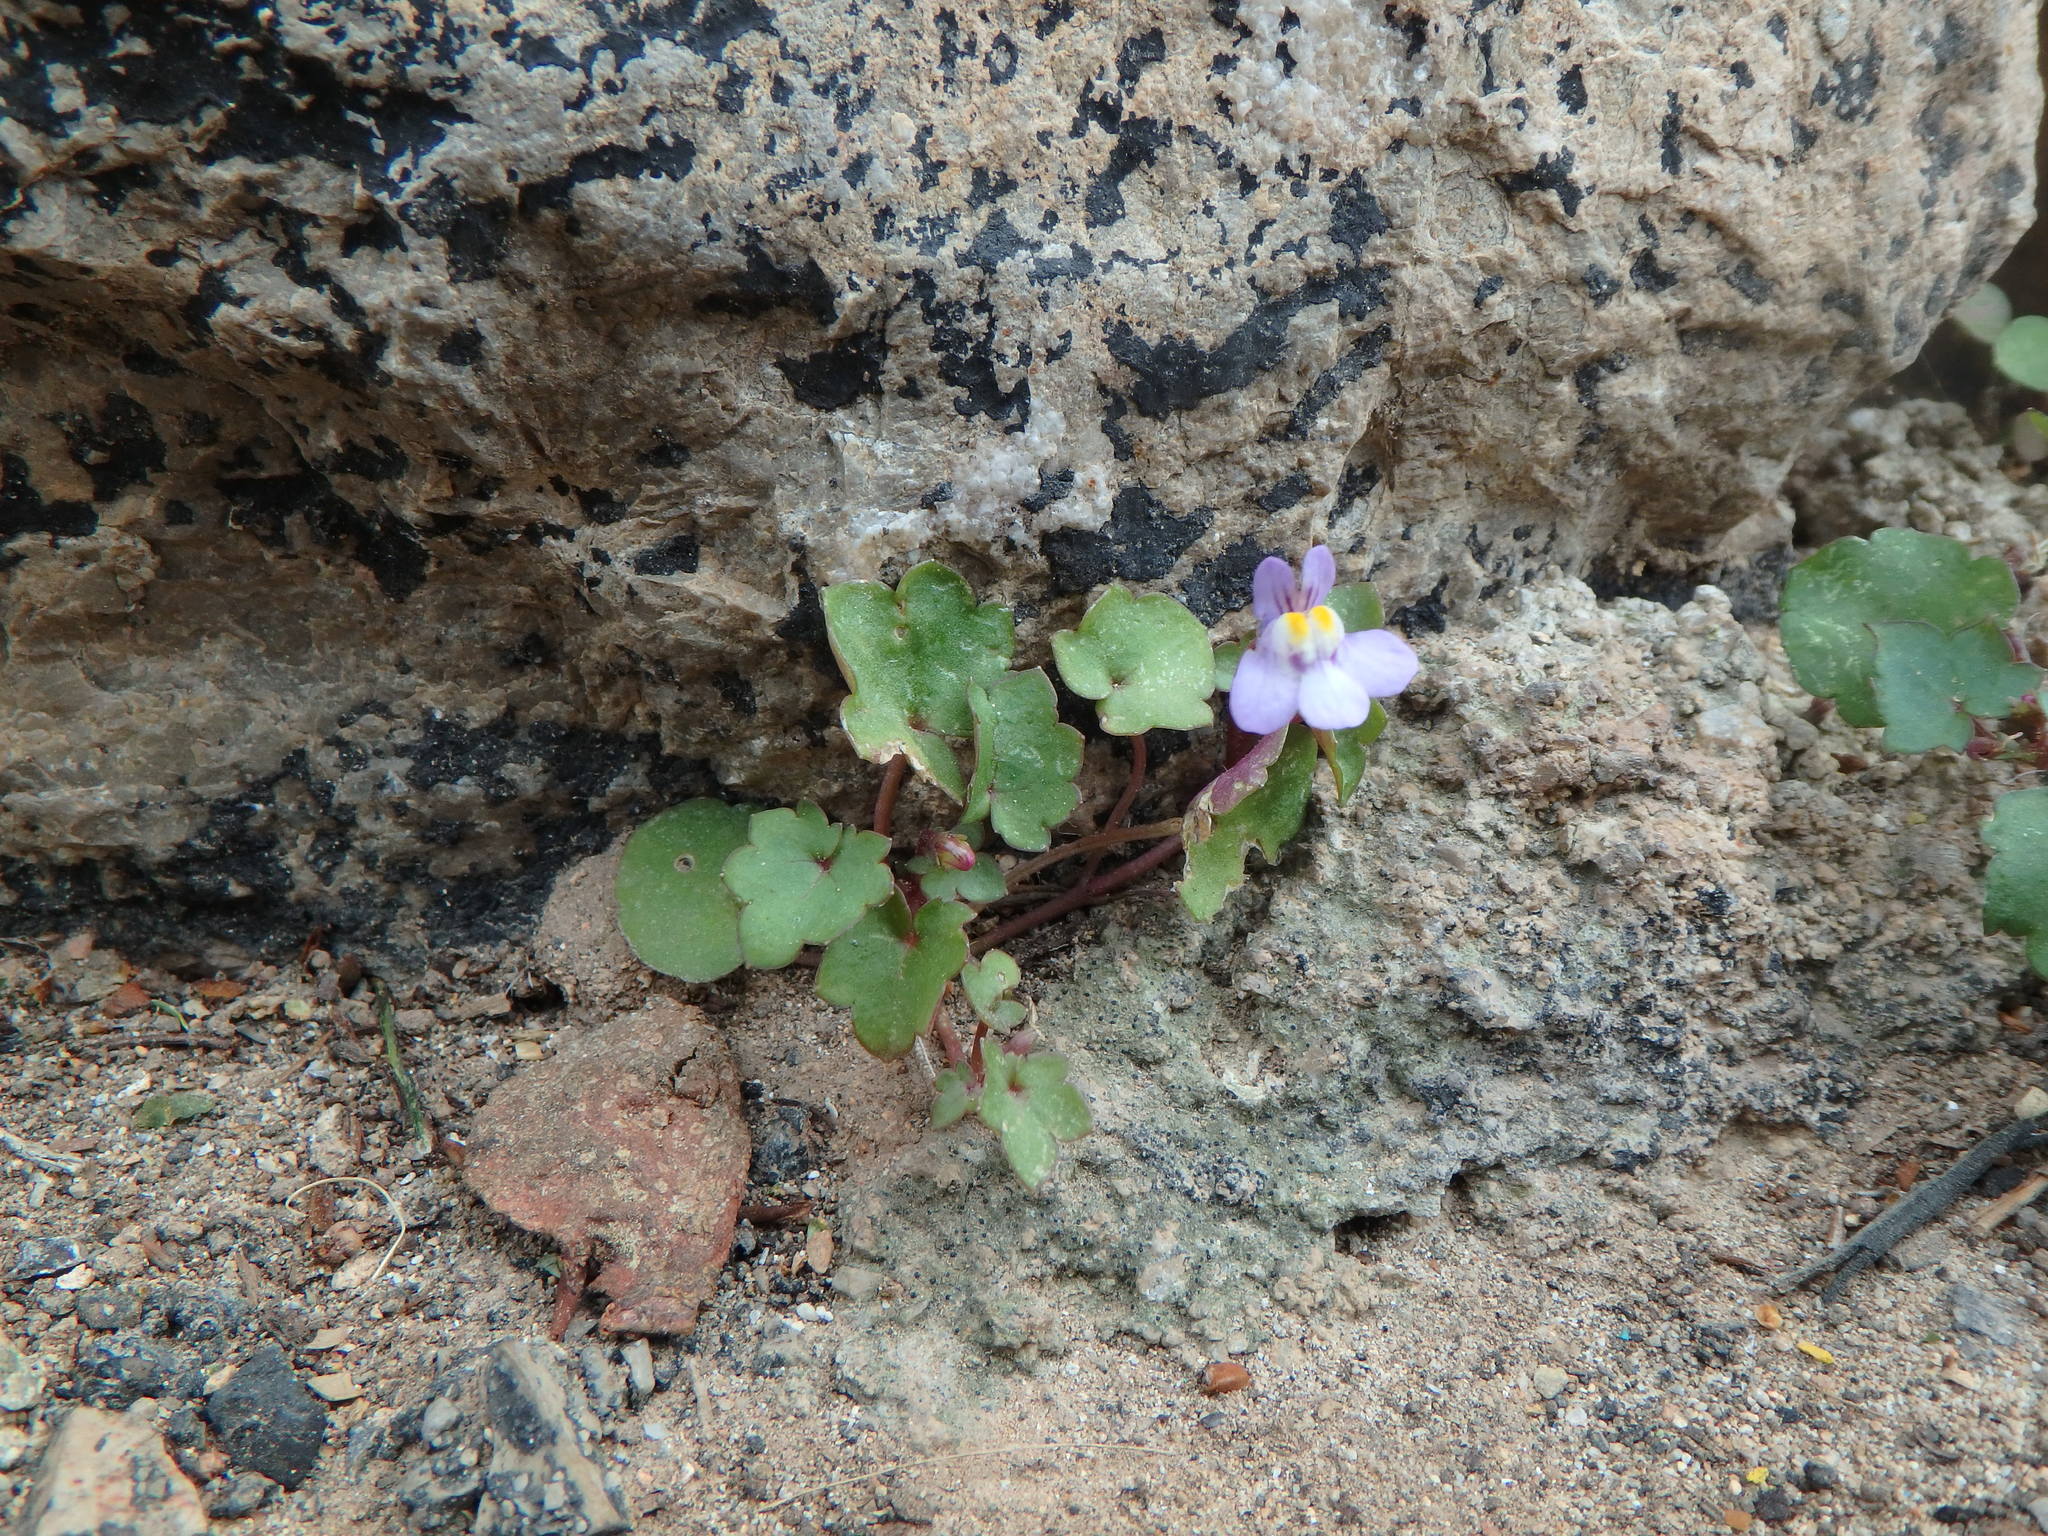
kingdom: Plantae
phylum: Tracheophyta
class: Magnoliopsida
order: Lamiales
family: Plantaginaceae
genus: Cymbalaria
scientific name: Cymbalaria muralis
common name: Ivy-leaved toadflax
